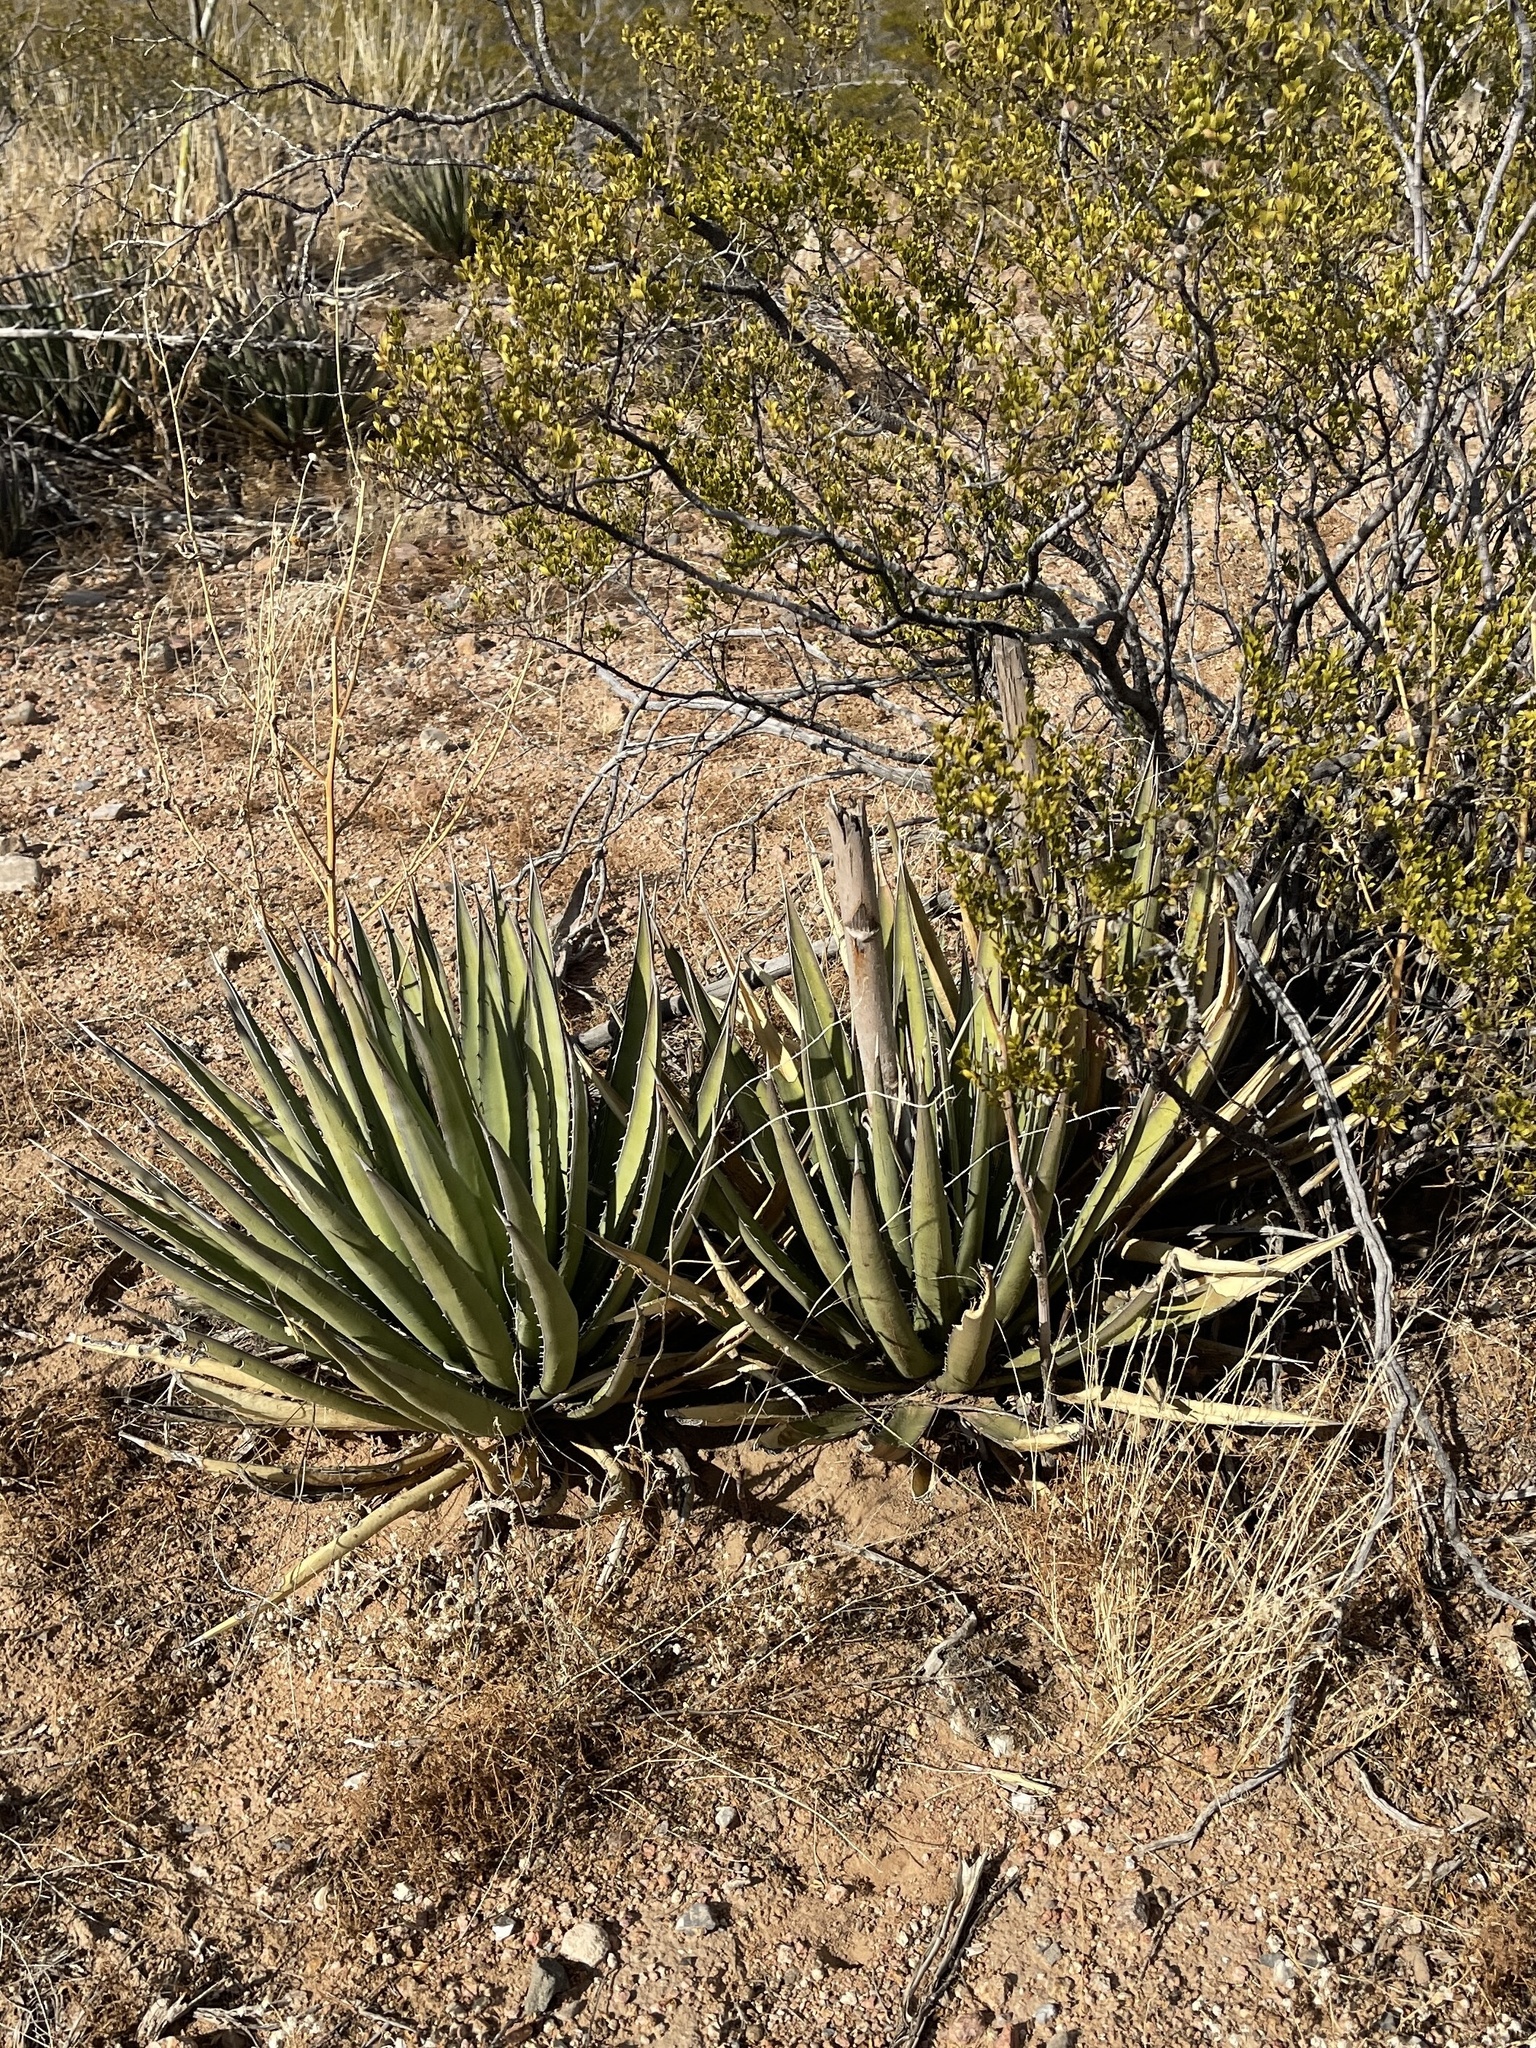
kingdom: Plantae
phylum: Tracheophyta
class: Liliopsida
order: Asparagales
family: Asparagaceae
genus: Agave
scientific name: Agave lechuguilla
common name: Lecheguilla agave
